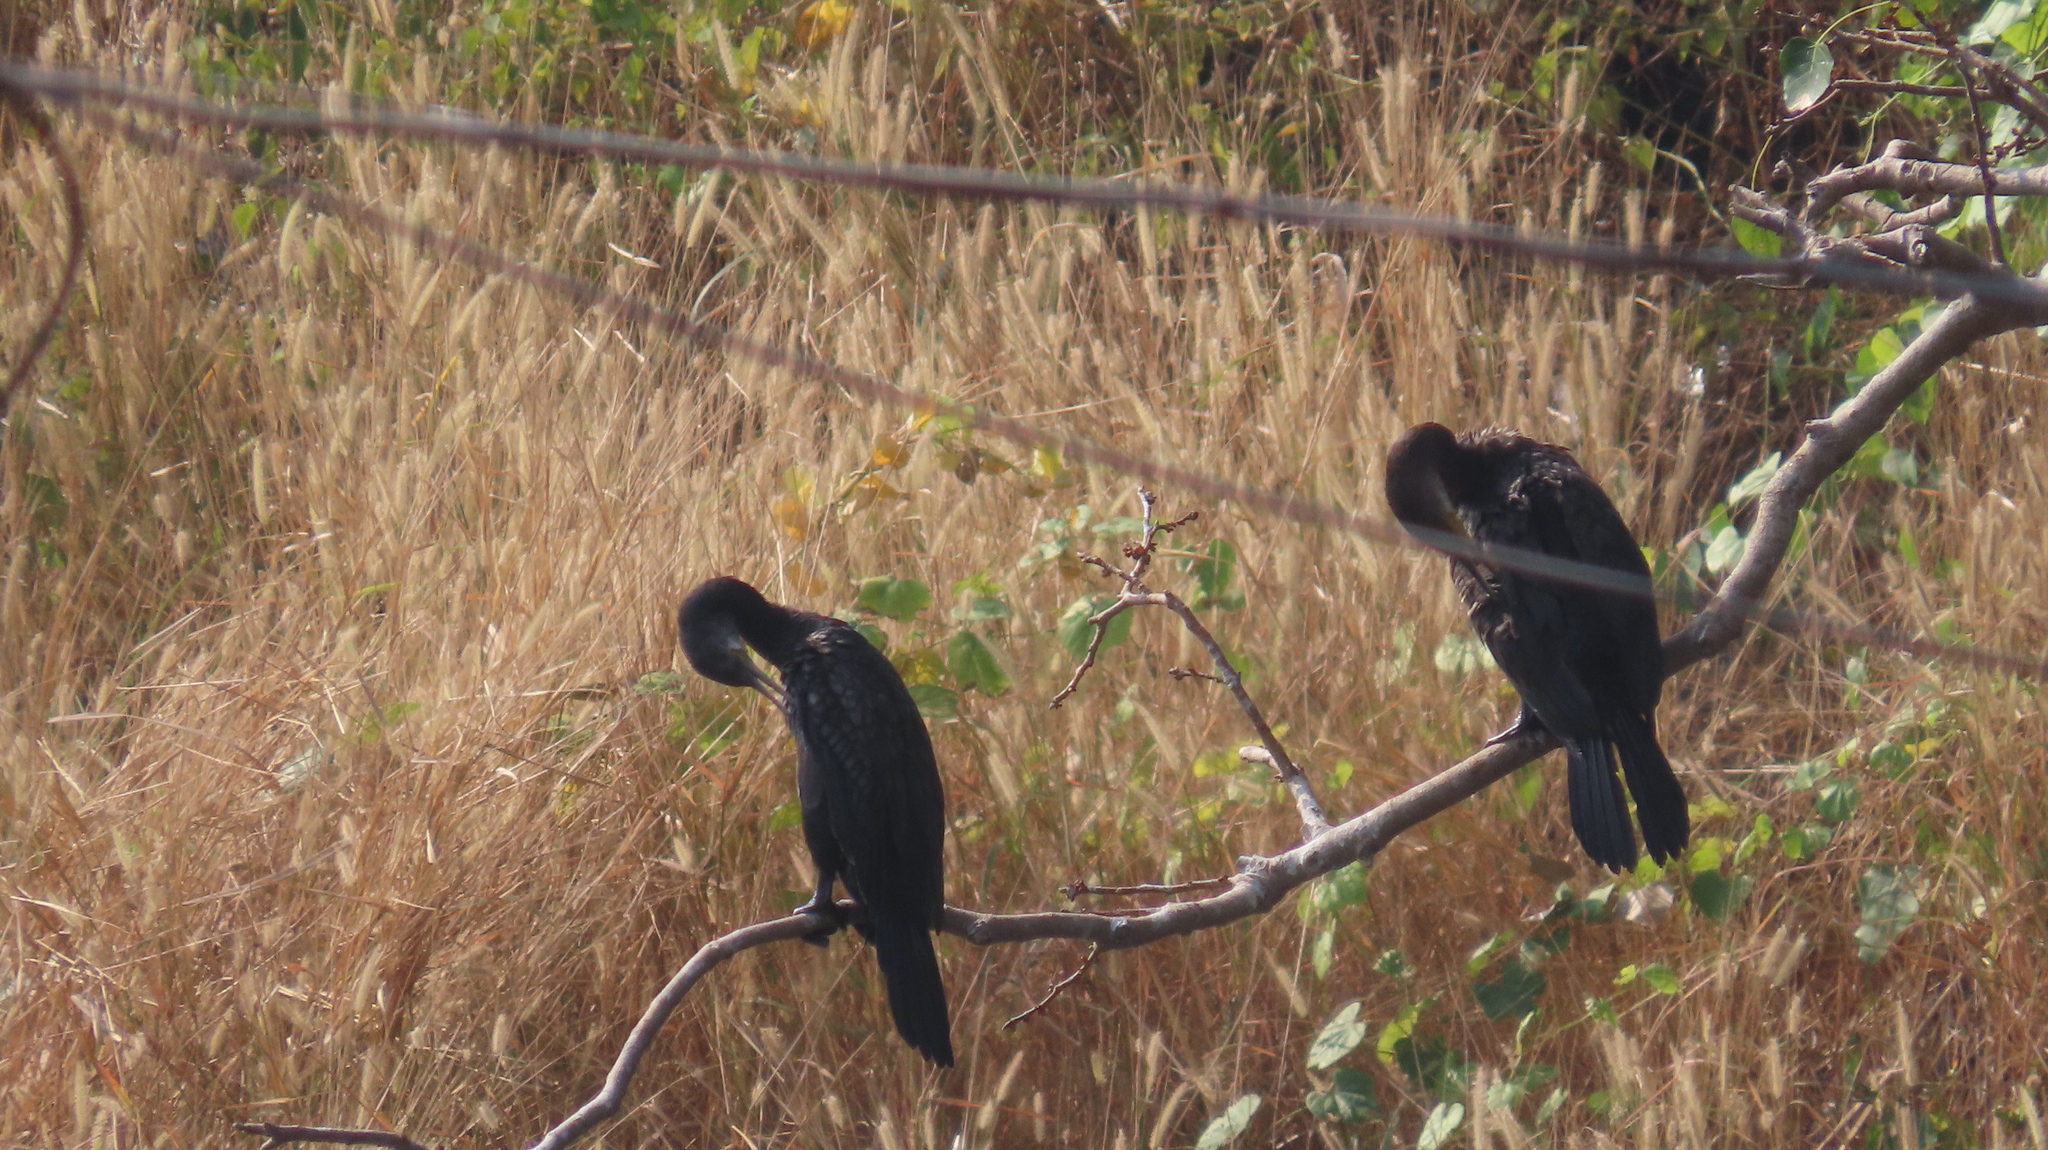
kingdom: Animalia
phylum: Chordata
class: Aves
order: Suliformes
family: Phalacrocoracidae
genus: Phalacrocorax
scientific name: Phalacrocorax fuscicollis
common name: Indian cormorant
